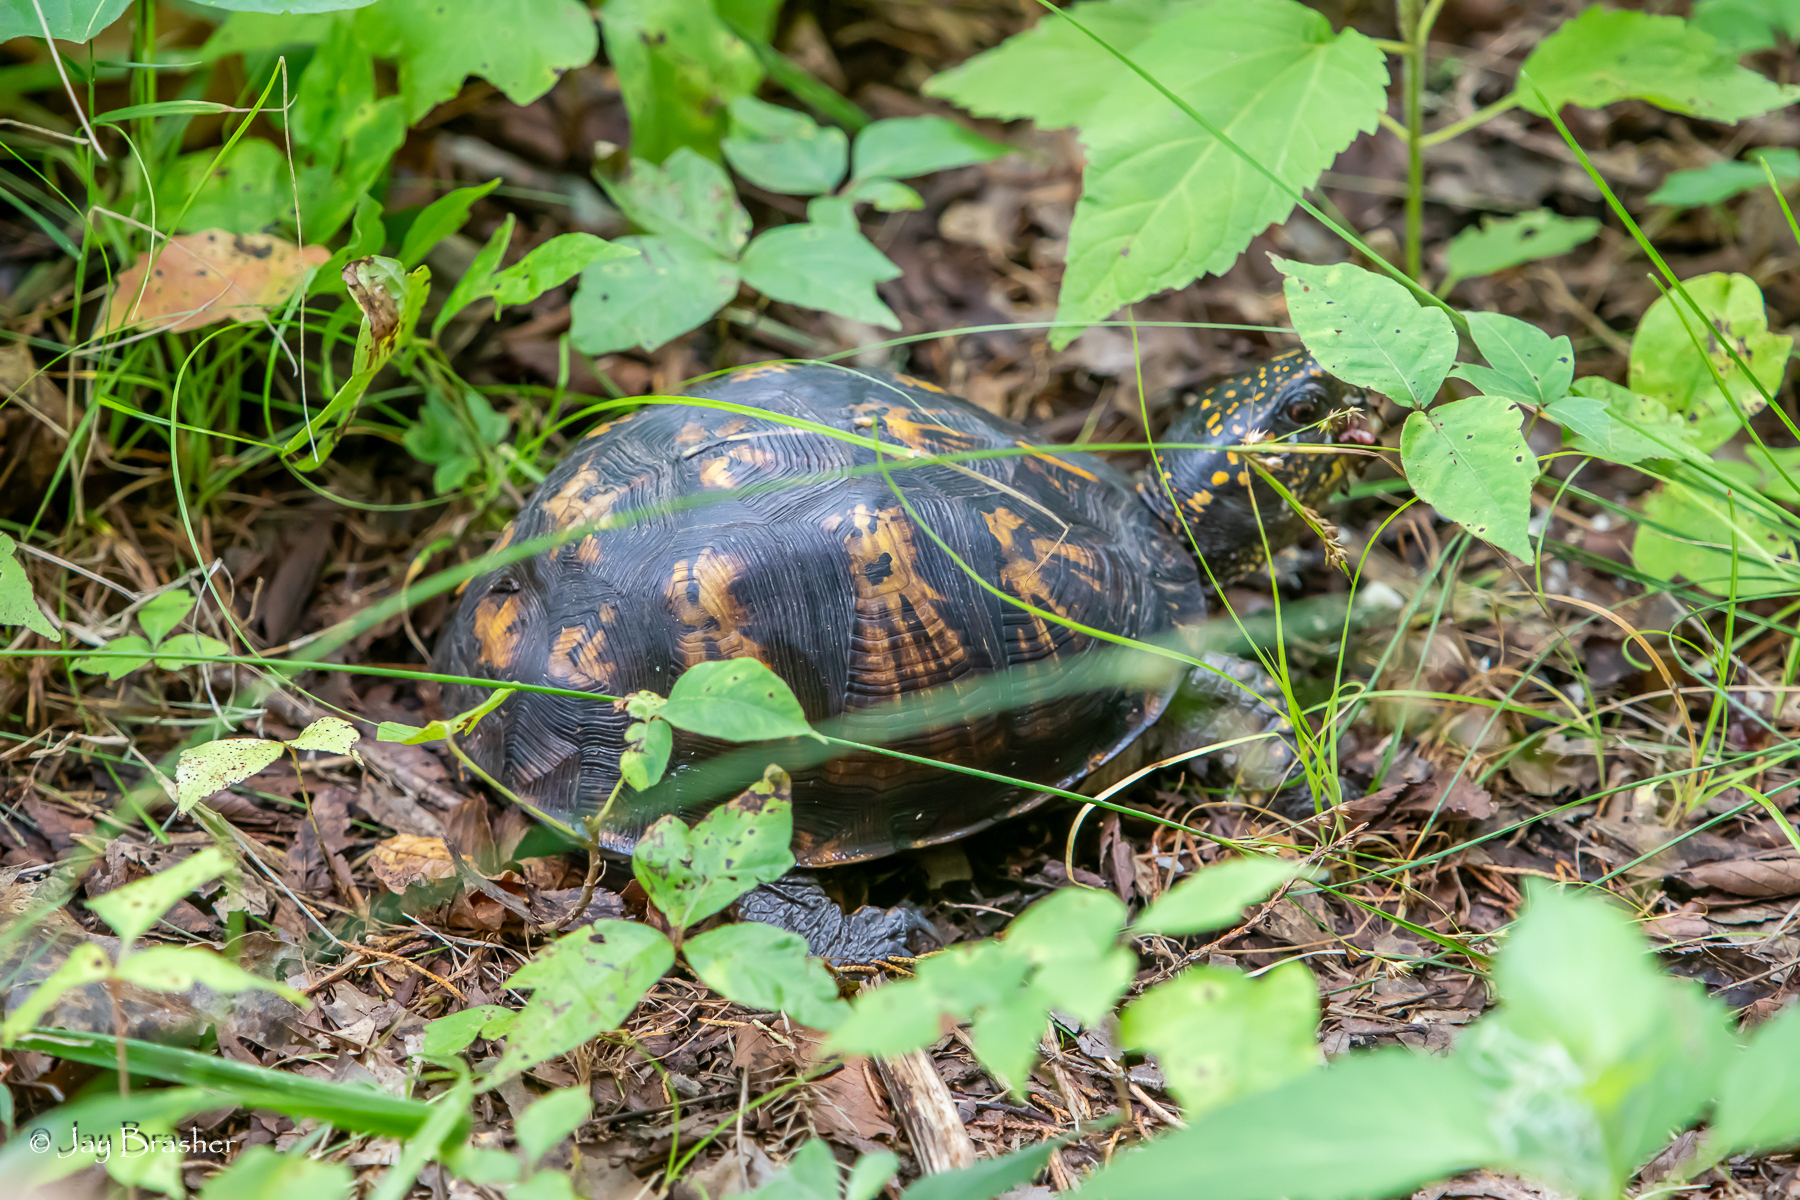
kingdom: Animalia
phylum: Chordata
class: Testudines
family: Emydidae
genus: Terrapene
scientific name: Terrapene carolina
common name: Common box turtle
